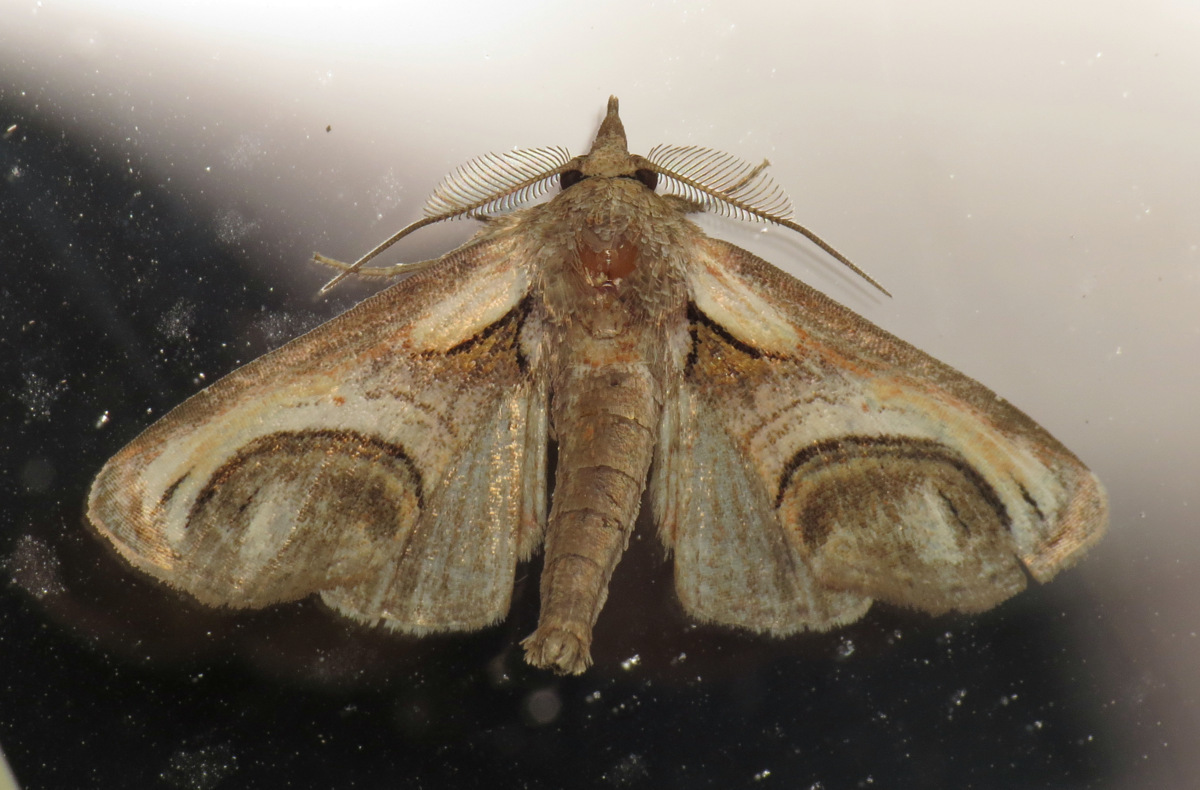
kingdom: Animalia
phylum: Arthropoda
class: Insecta
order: Lepidoptera
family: Euteliidae
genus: Paectes
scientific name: Paectes oculatrix
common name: Eyed paectes moth
